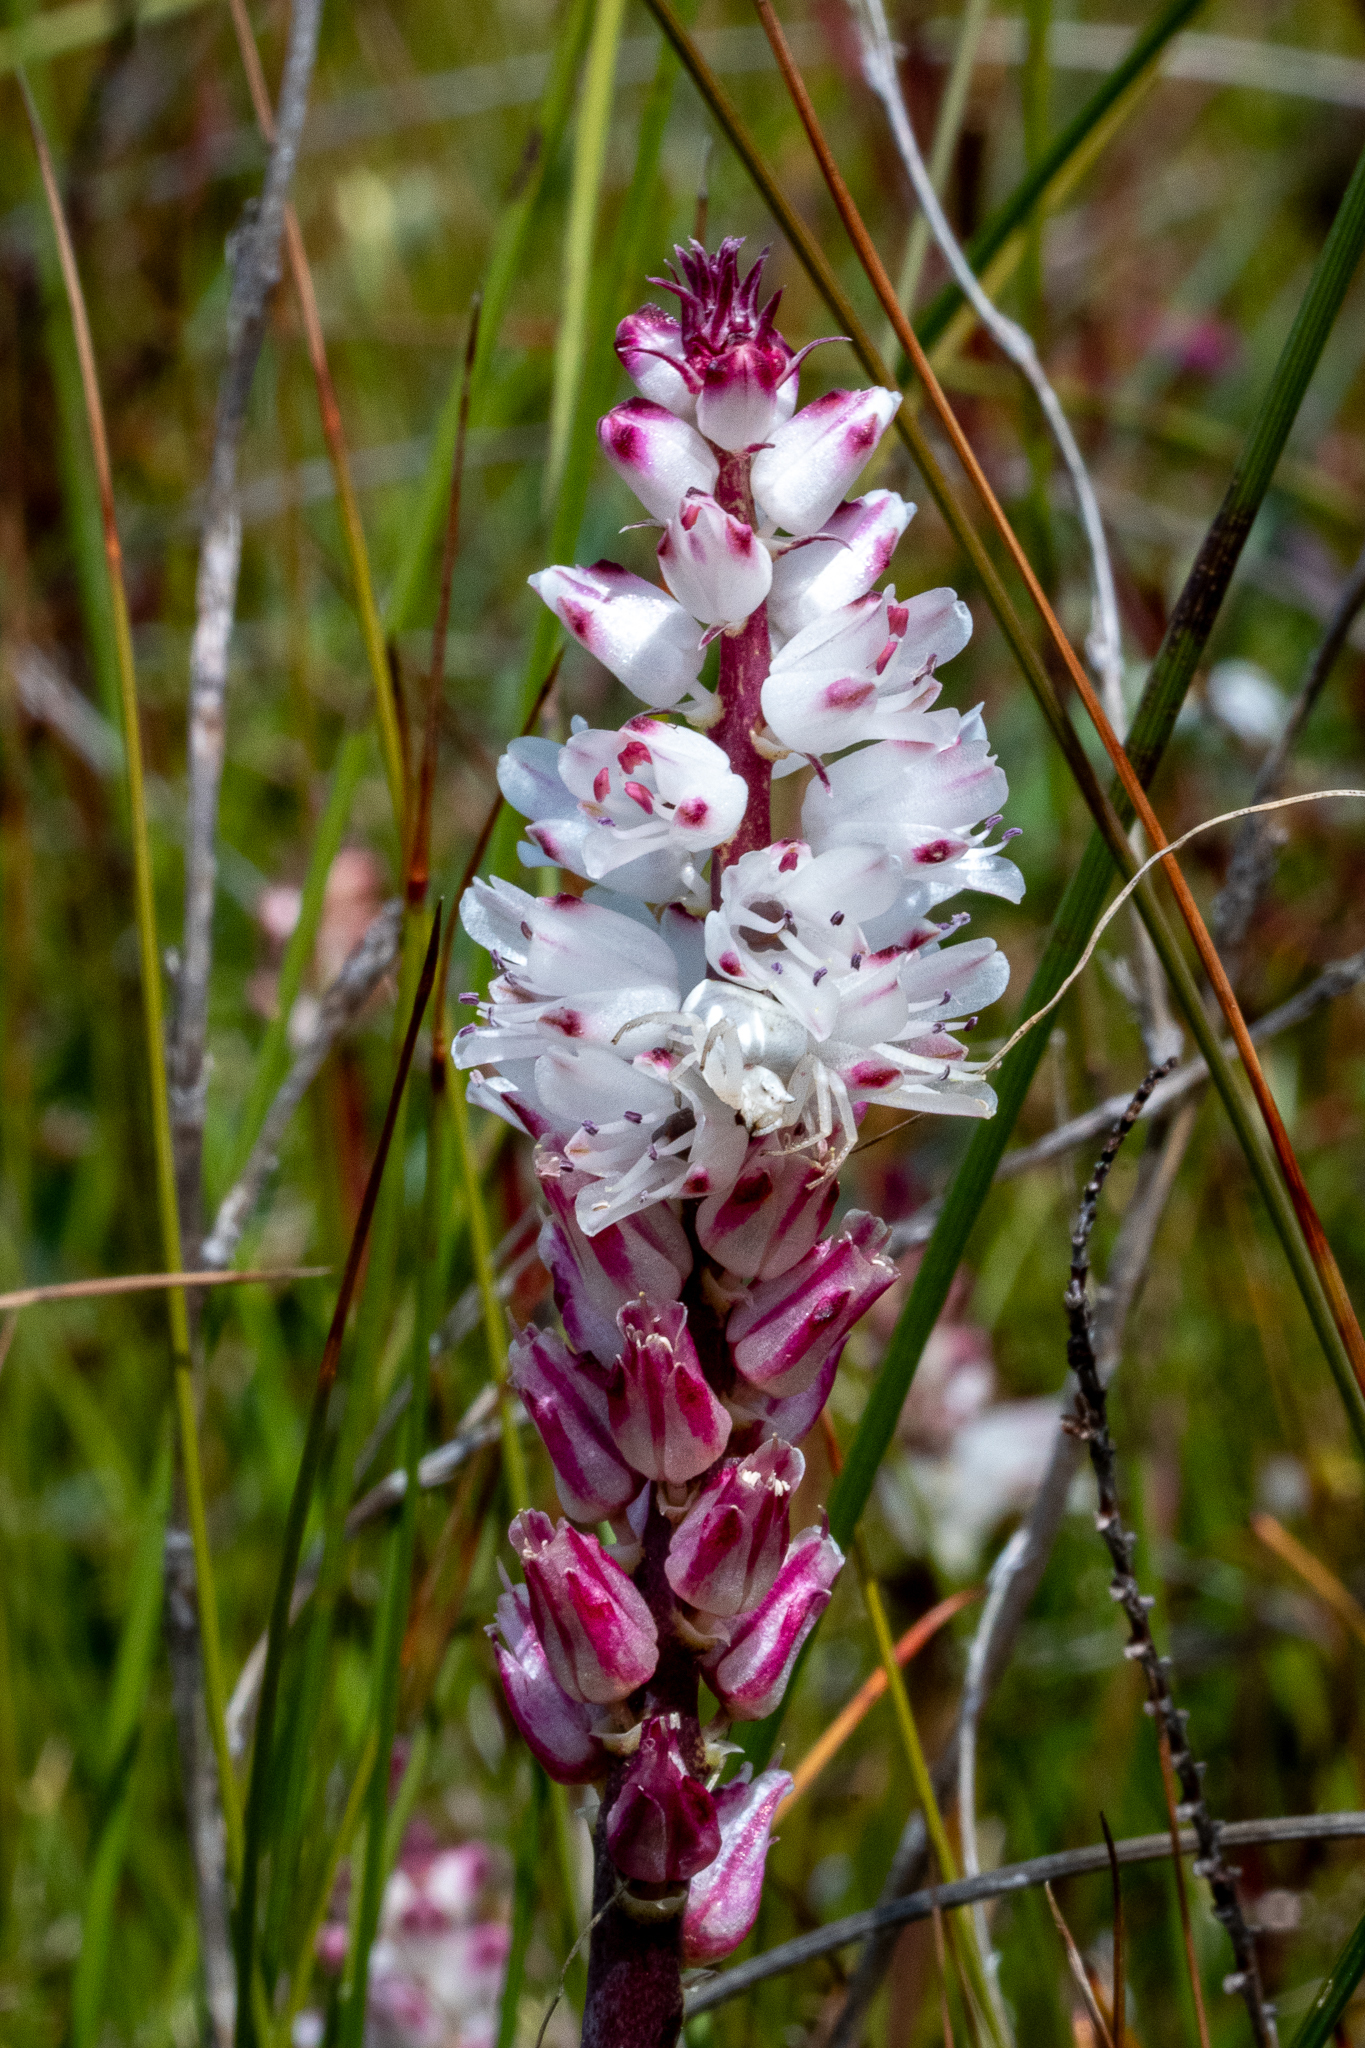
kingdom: Plantae
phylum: Tracheophyta
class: Liliopsida
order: Asparagales
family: Asparagaceae
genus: Lachenalia
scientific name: Lachenalia contaminata
